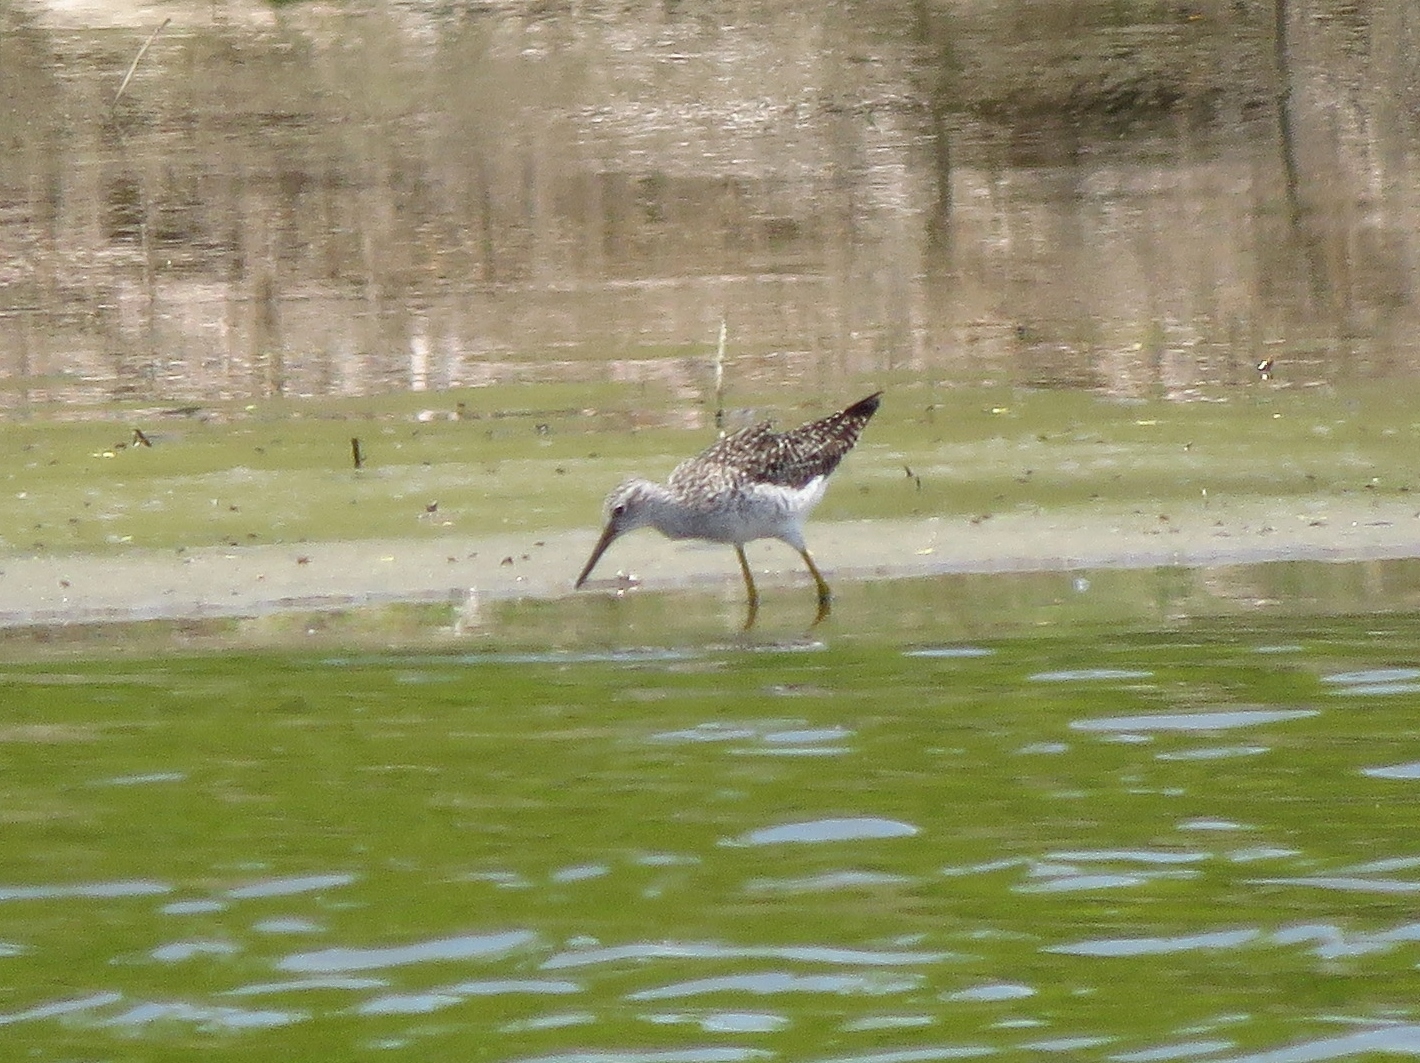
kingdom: Animalia
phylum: Chordata
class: Aves
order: Charadriiformes
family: Scolopacidae
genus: Tringa
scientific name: Tringa melanoleuca
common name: Greater yellowlegs
